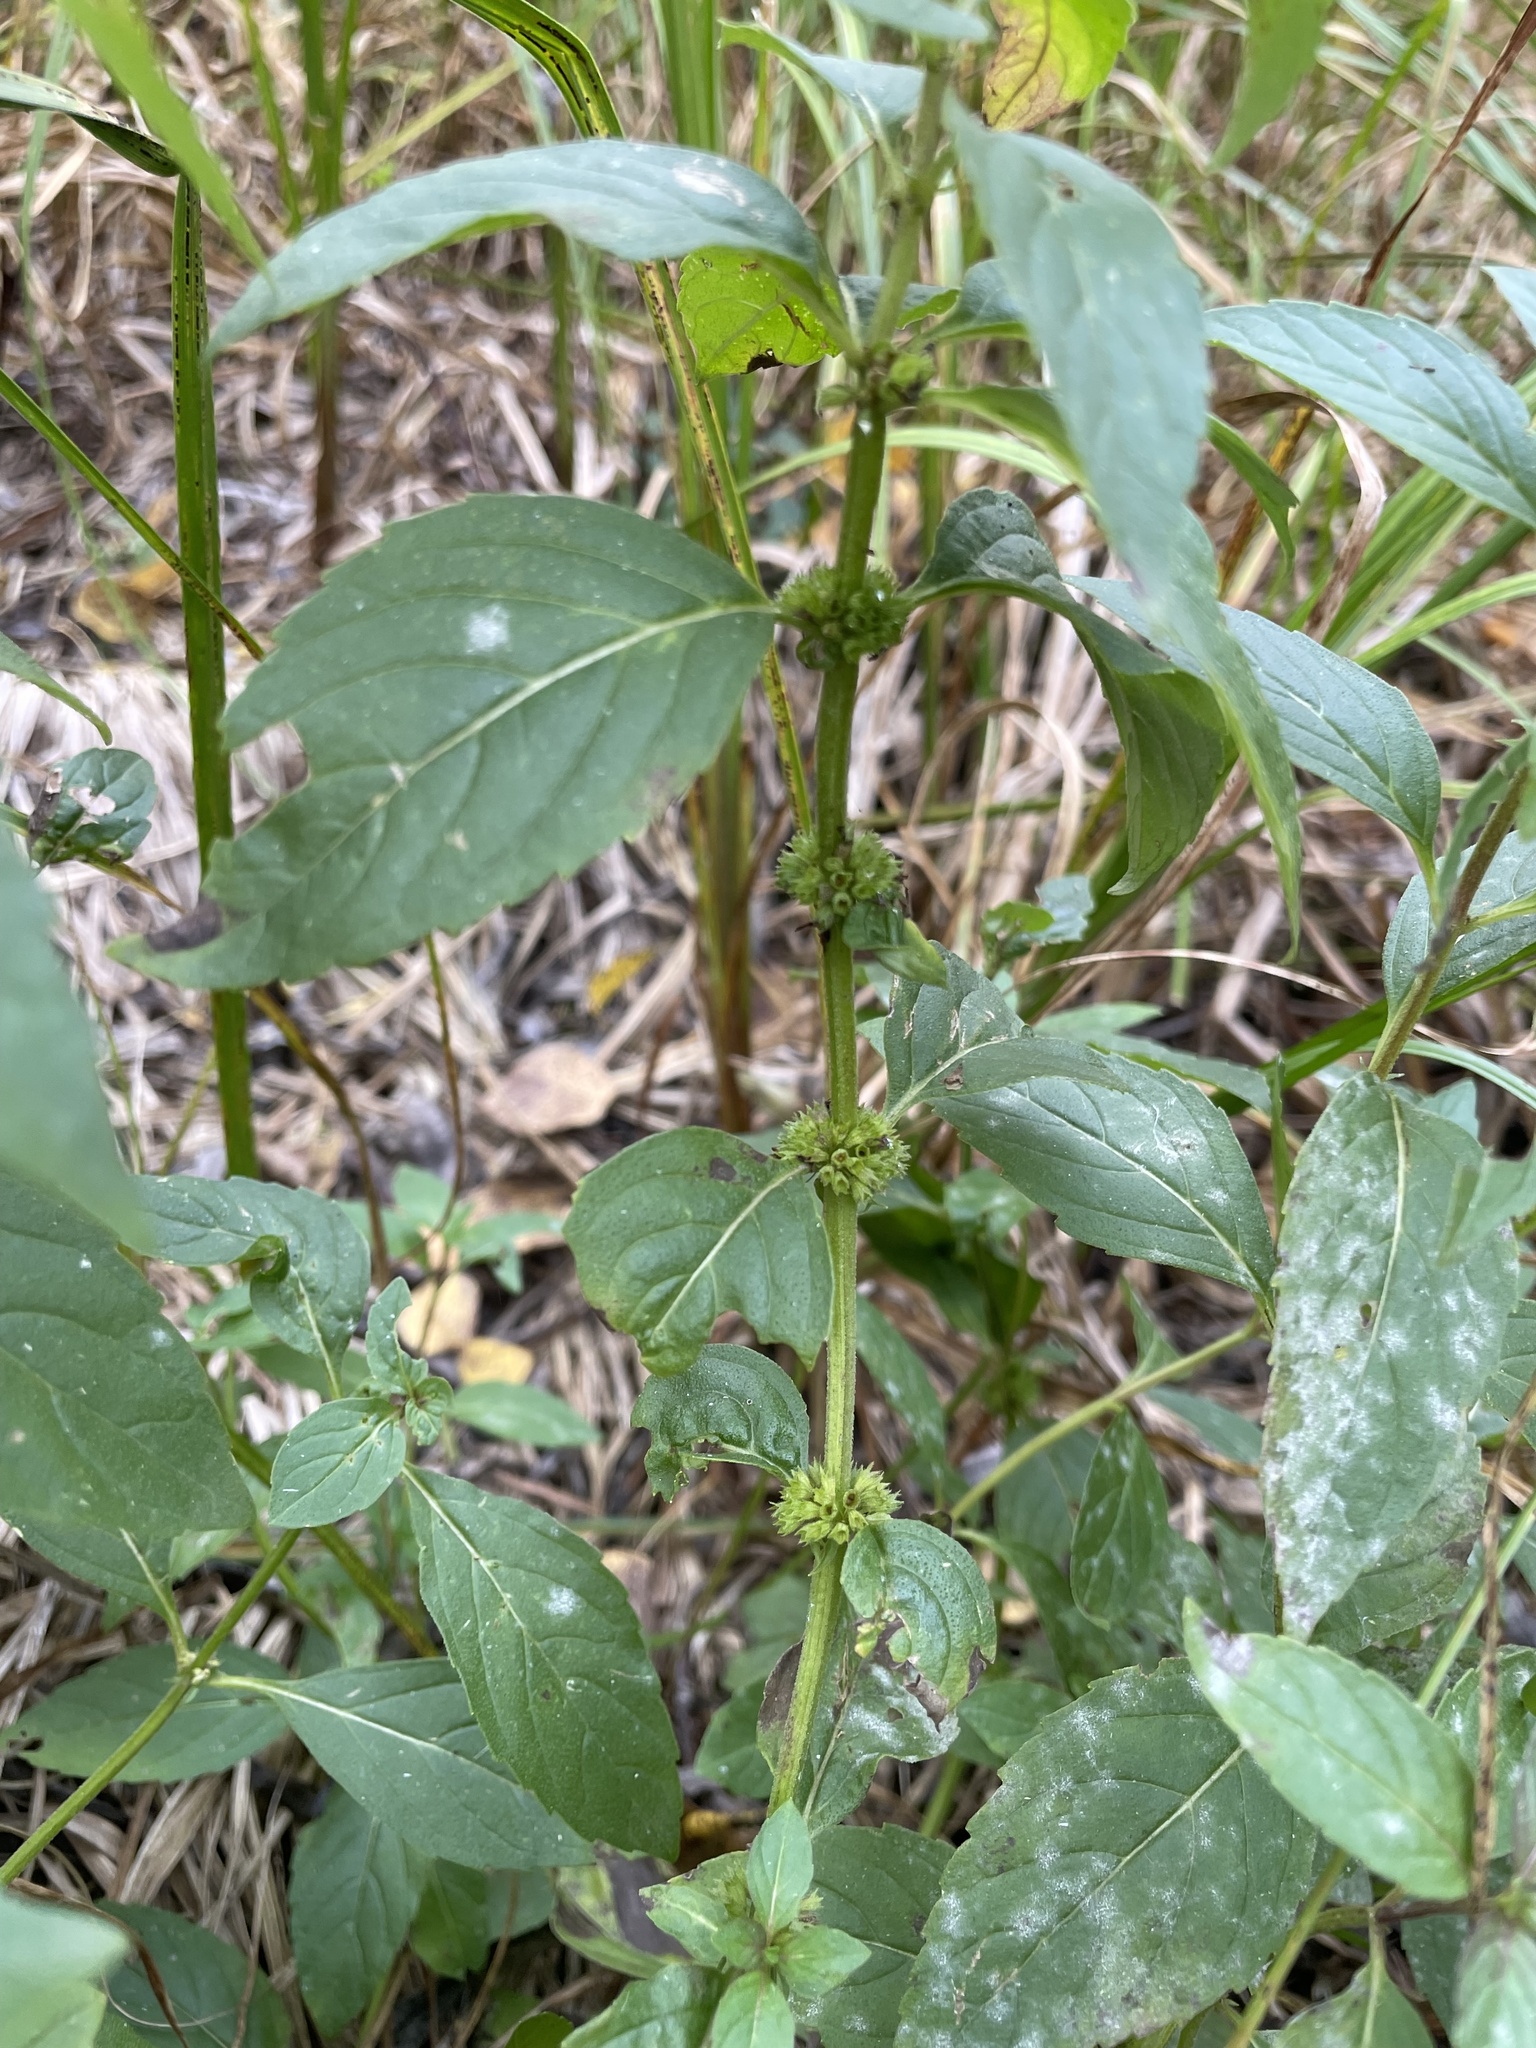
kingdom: Plantae
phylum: Tracheophyta
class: Magnoliopsida
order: Lamiales
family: Lamiaceae
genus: Mentha
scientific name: Mentha canadensis
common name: American corn mint
